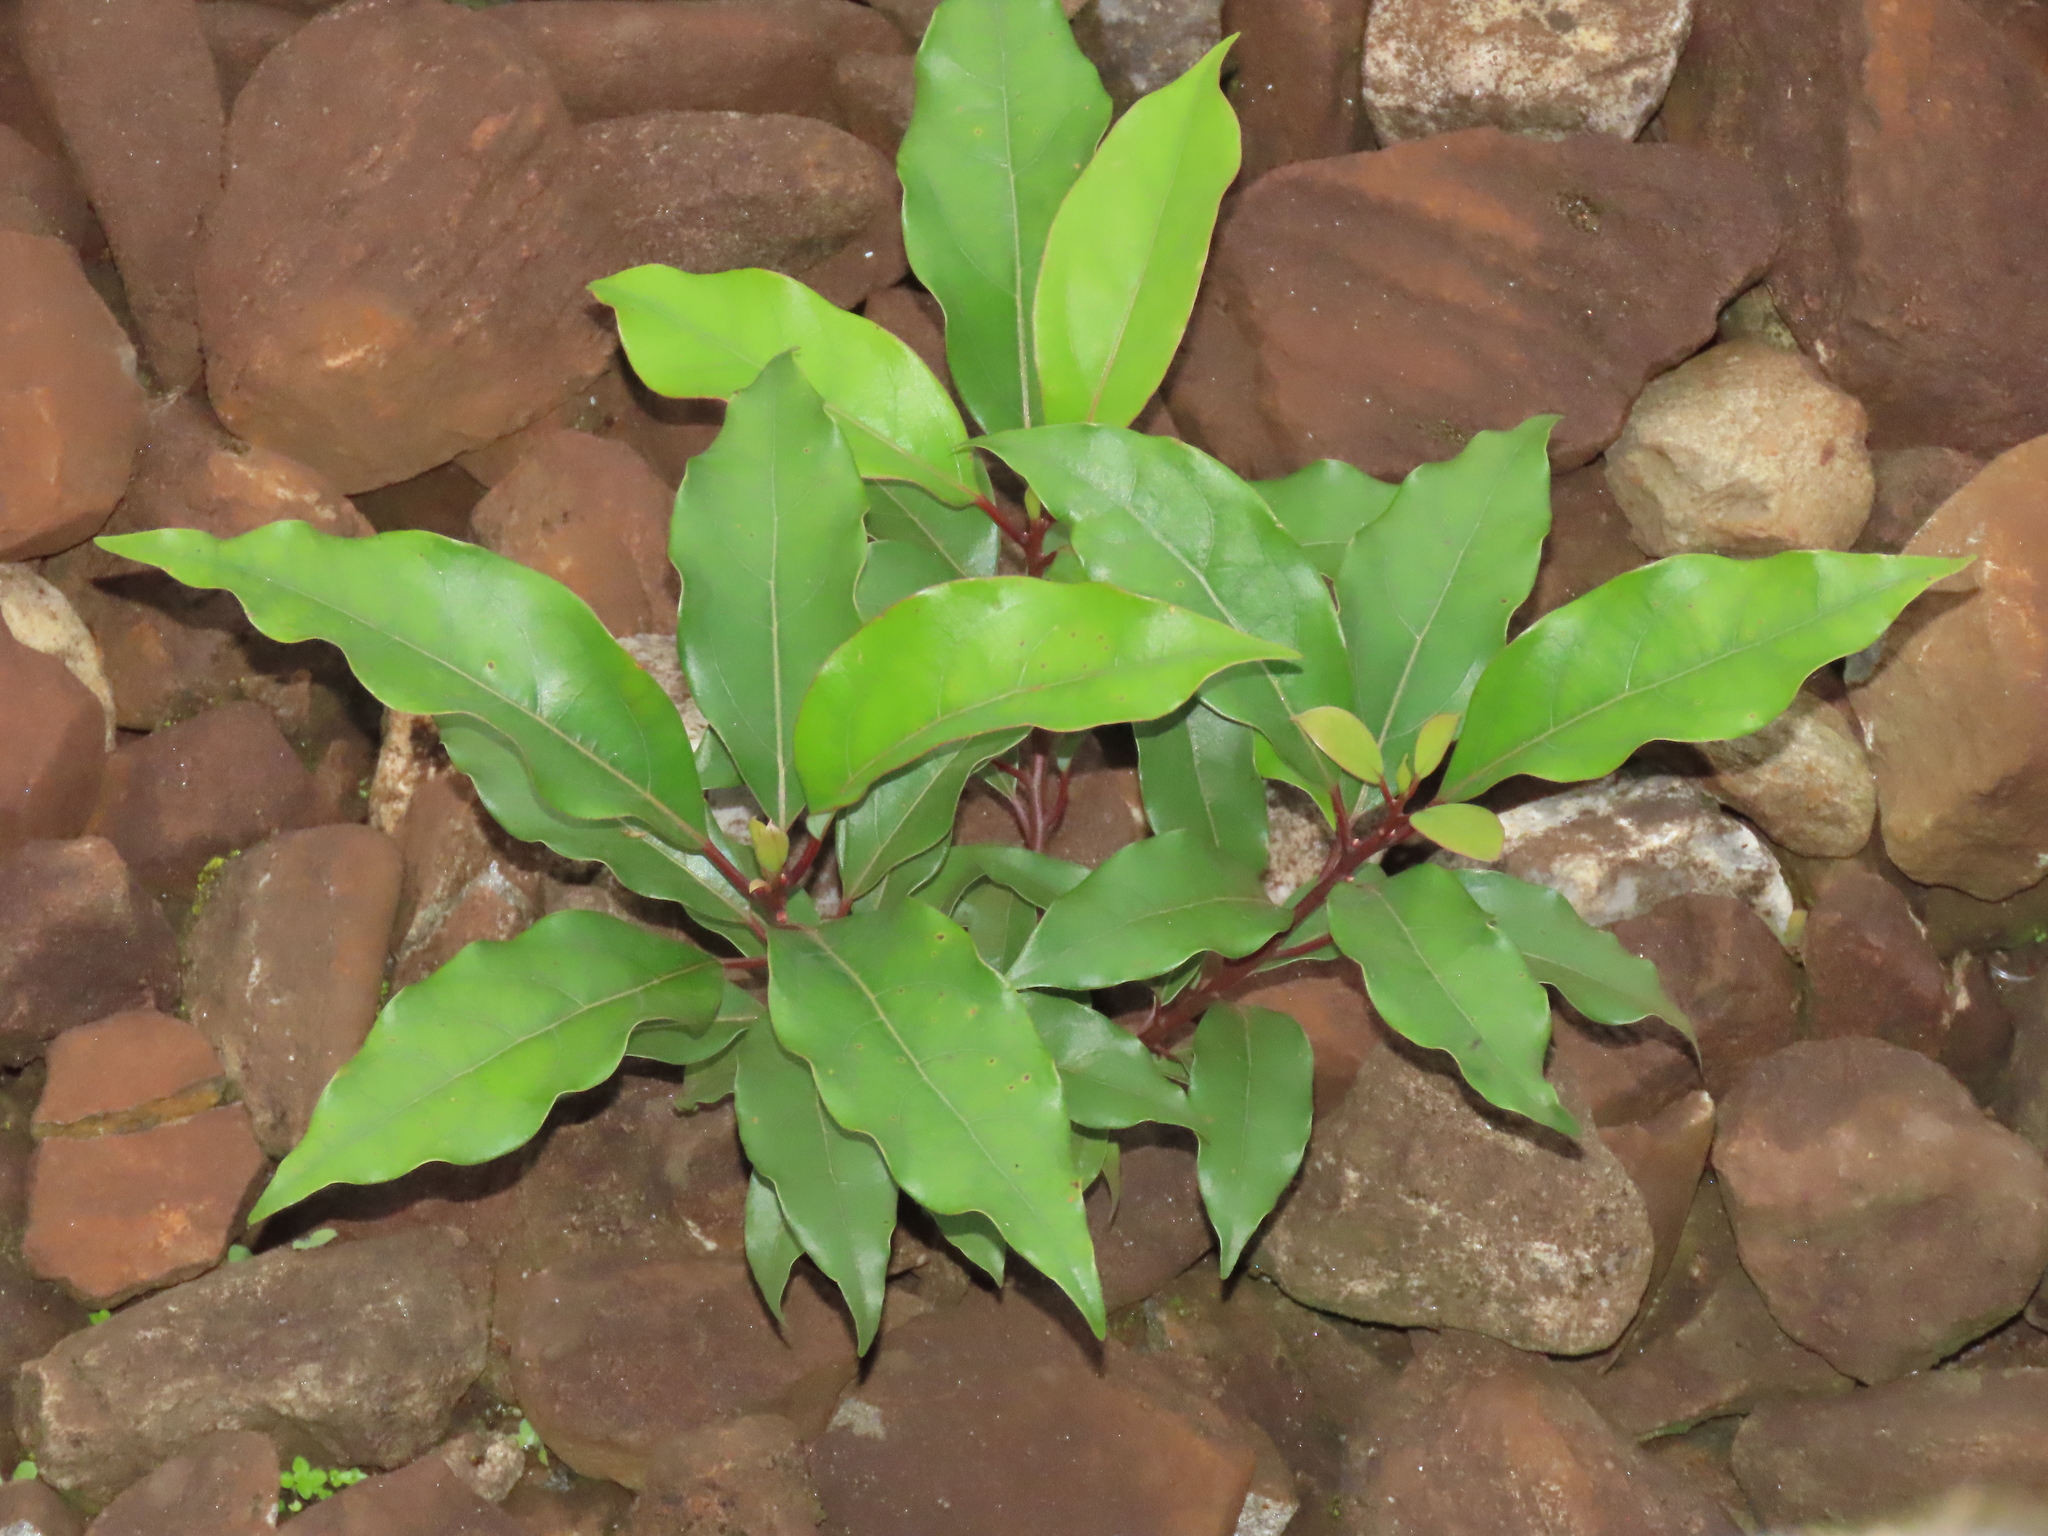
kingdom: Plantae
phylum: Tracheophyta
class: Magnoliopsida
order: Laurales
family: Lauraceae
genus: Cinnamomum
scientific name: Cinnamomum camphora
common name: Camphortree
